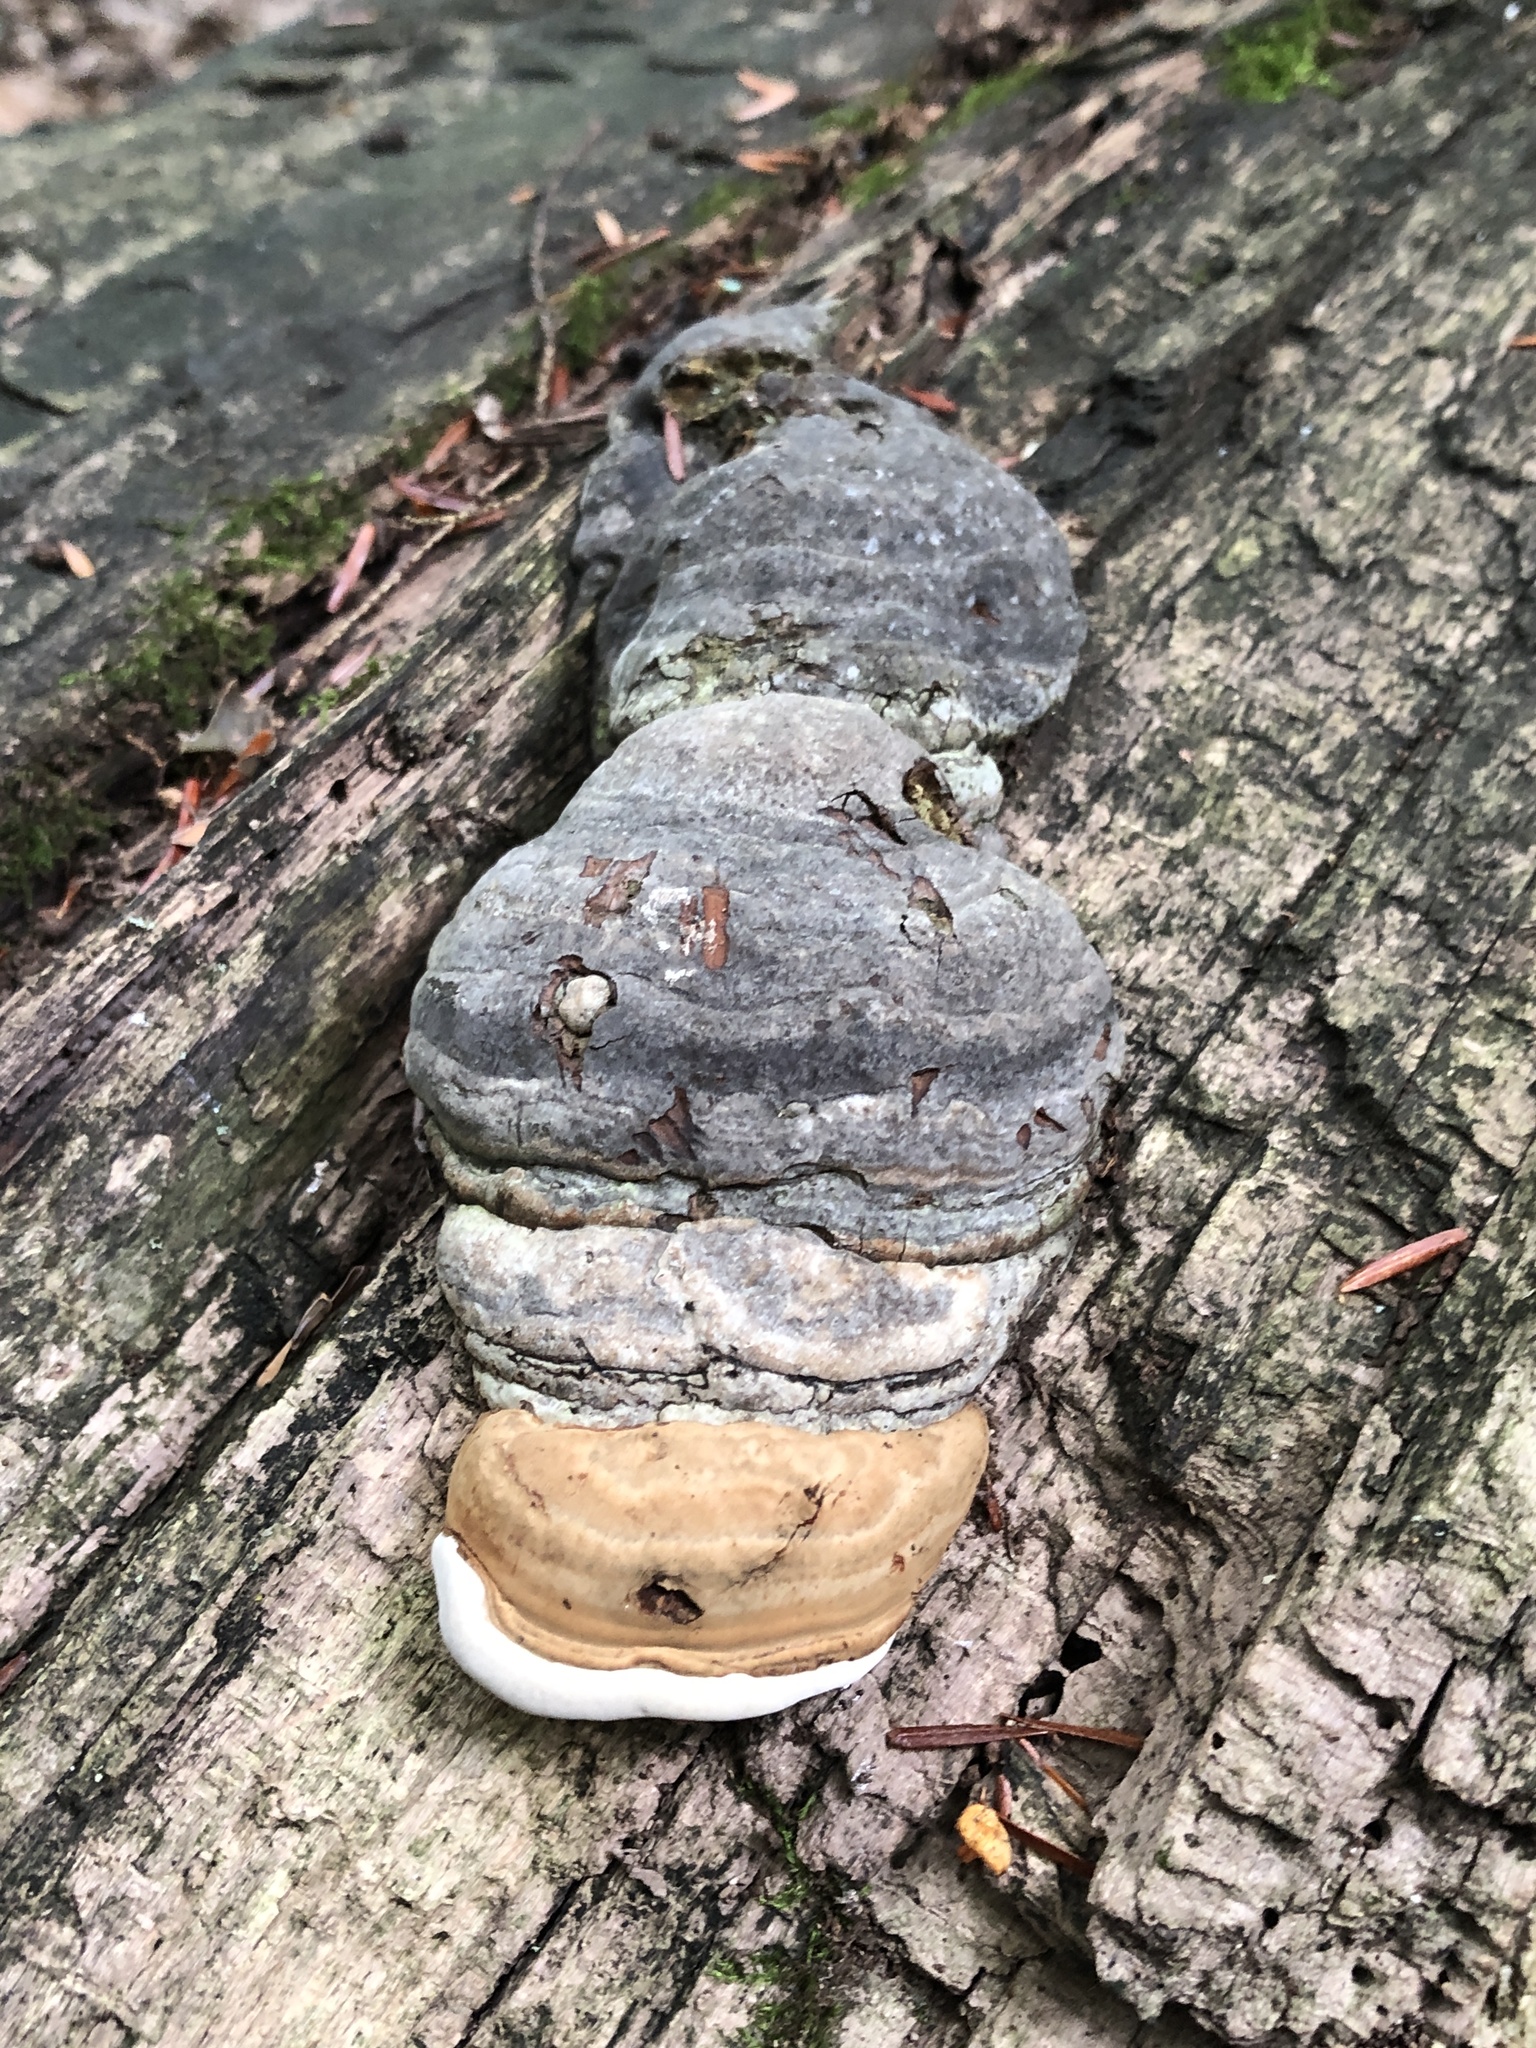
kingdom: Fungi
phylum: Basidiomycota
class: Agaricomycetes
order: Polyporales
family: Polyporaceae
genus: Fomes
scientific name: Fomes fomentarius
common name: Hoof fungus
